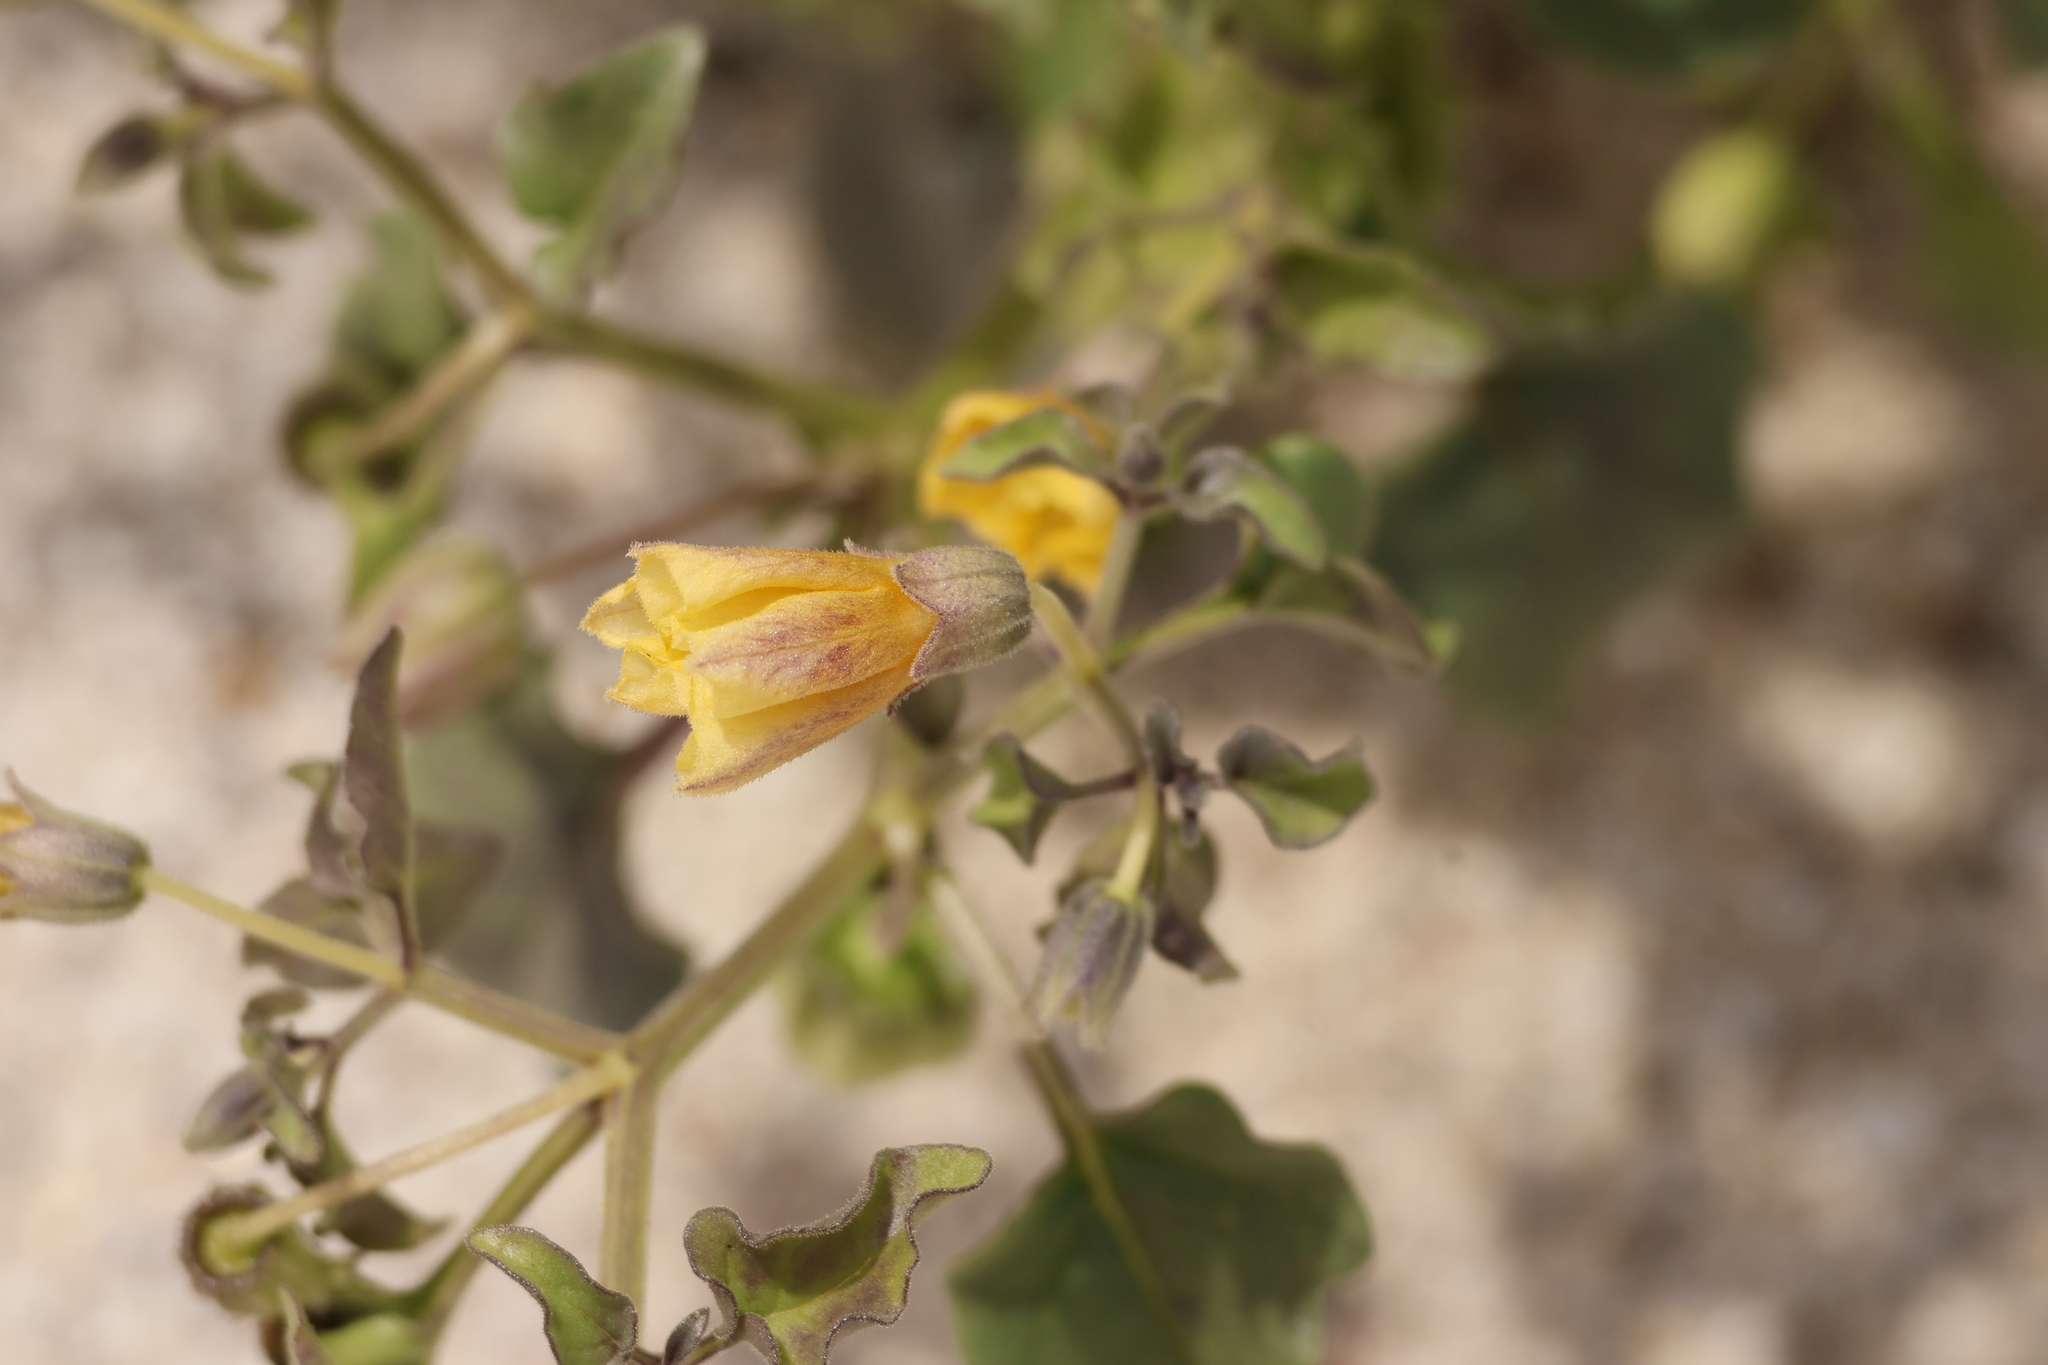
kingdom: Plantae
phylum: Tracheophyta
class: Magnoliopsida
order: Solanales
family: Solanaceae
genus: Physalis
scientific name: Physalis crassifolia
